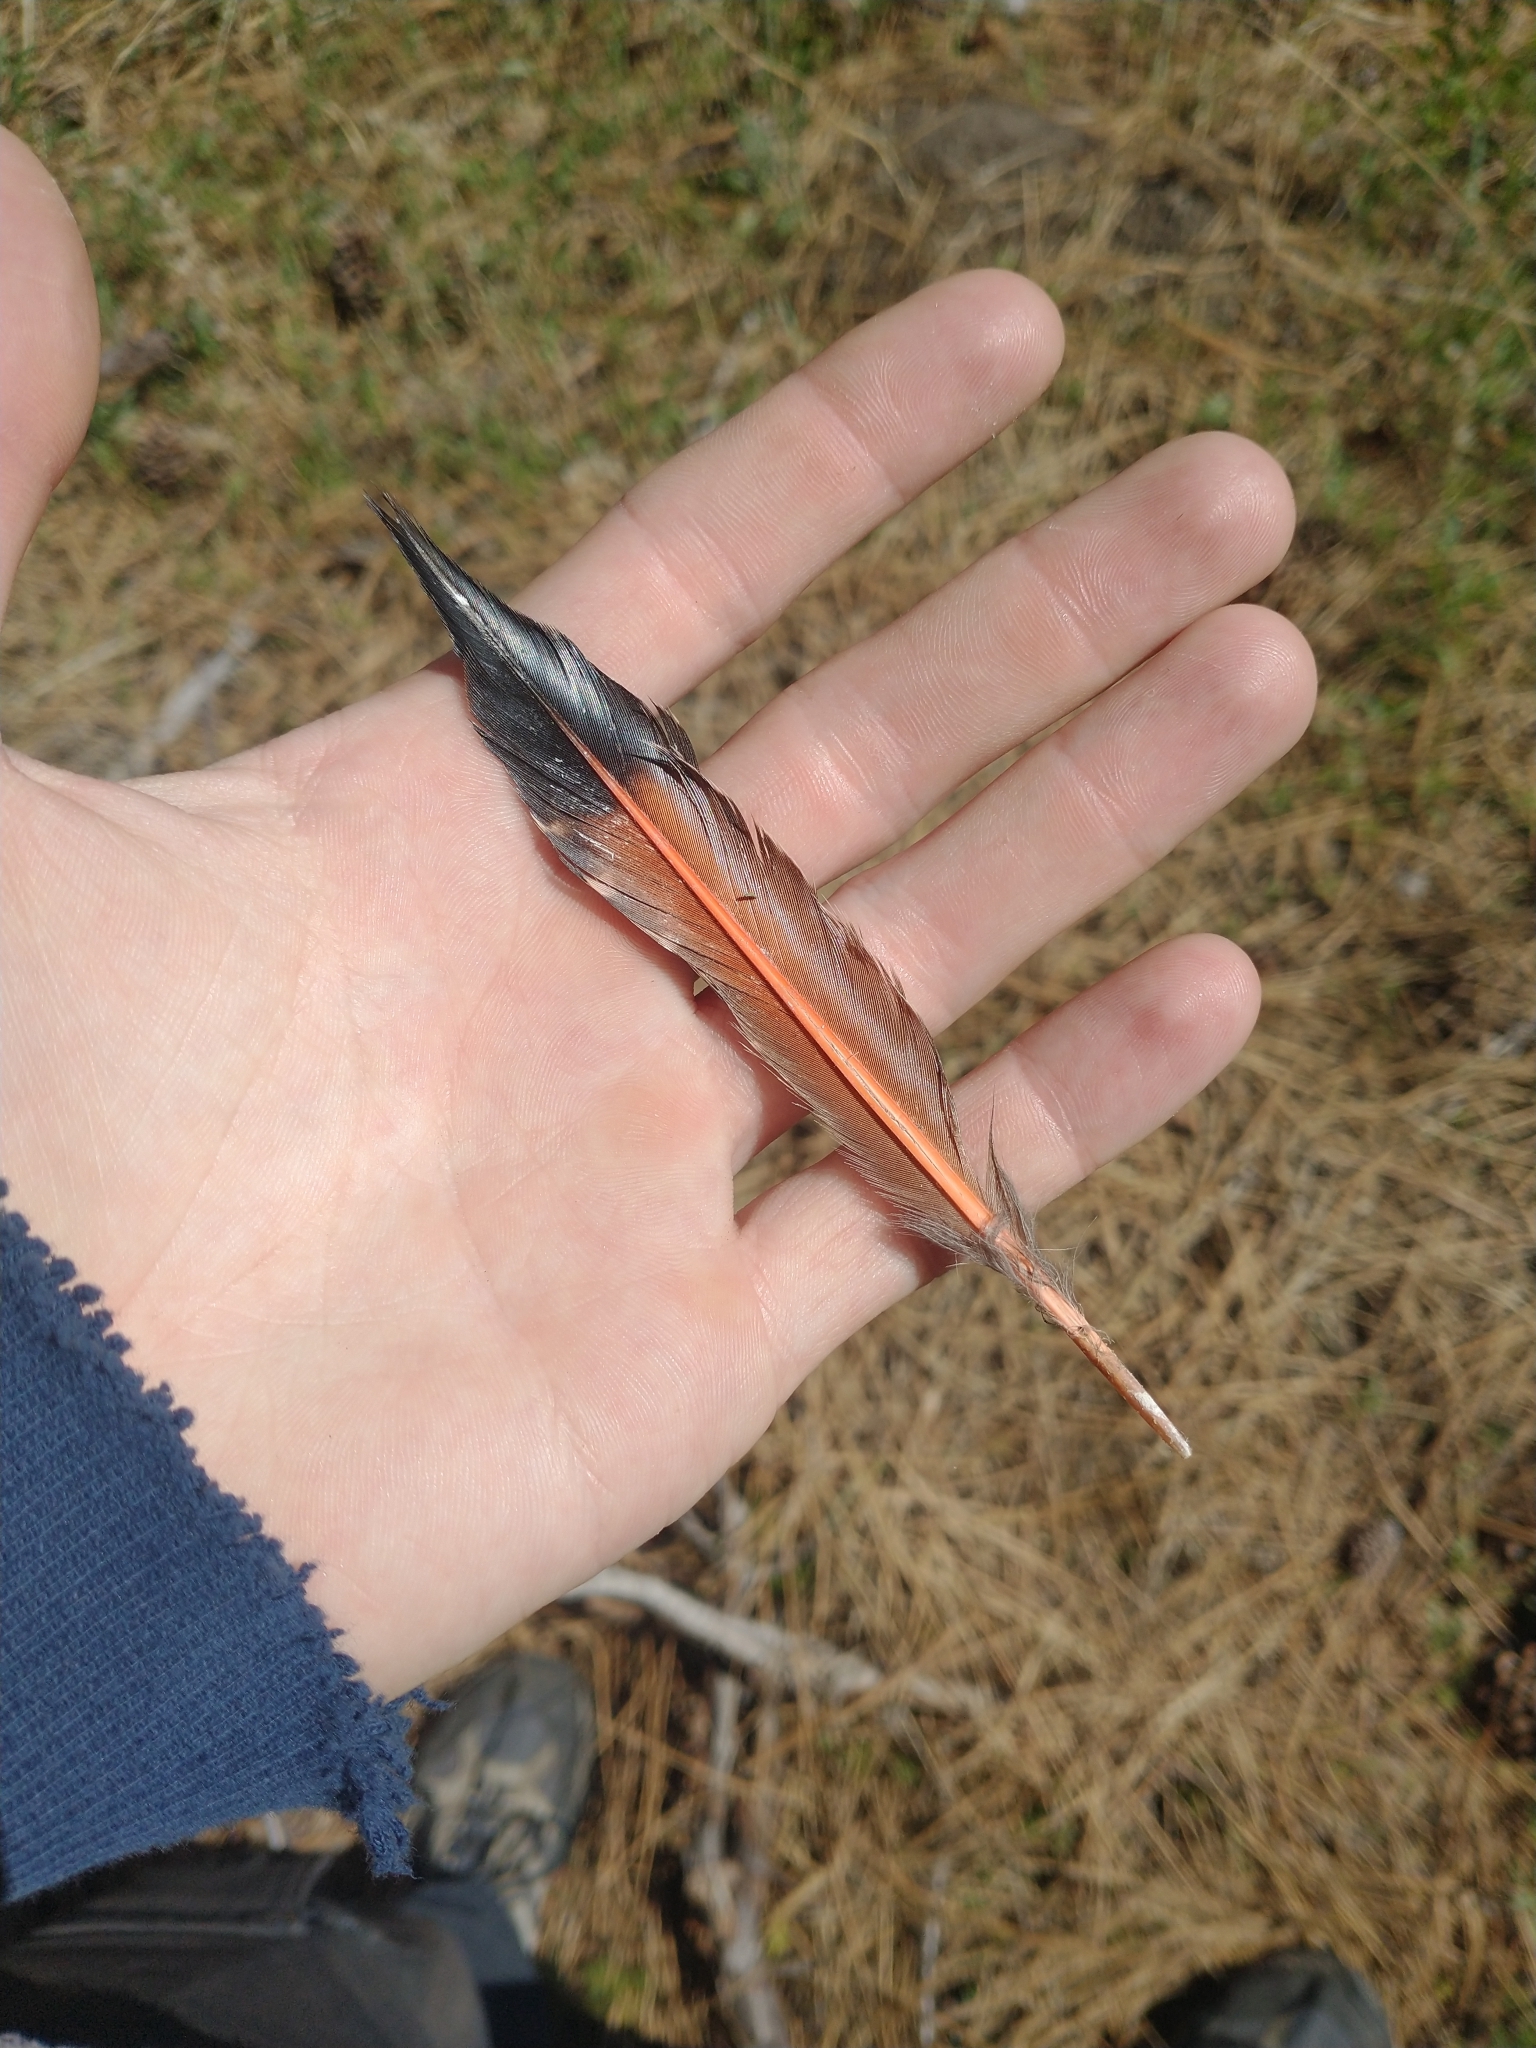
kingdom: Animalia
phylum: Chordata
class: Aves
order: Piciformes
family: Picidae
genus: Colaptes
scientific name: Colaptes auratus
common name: Northern flicker
